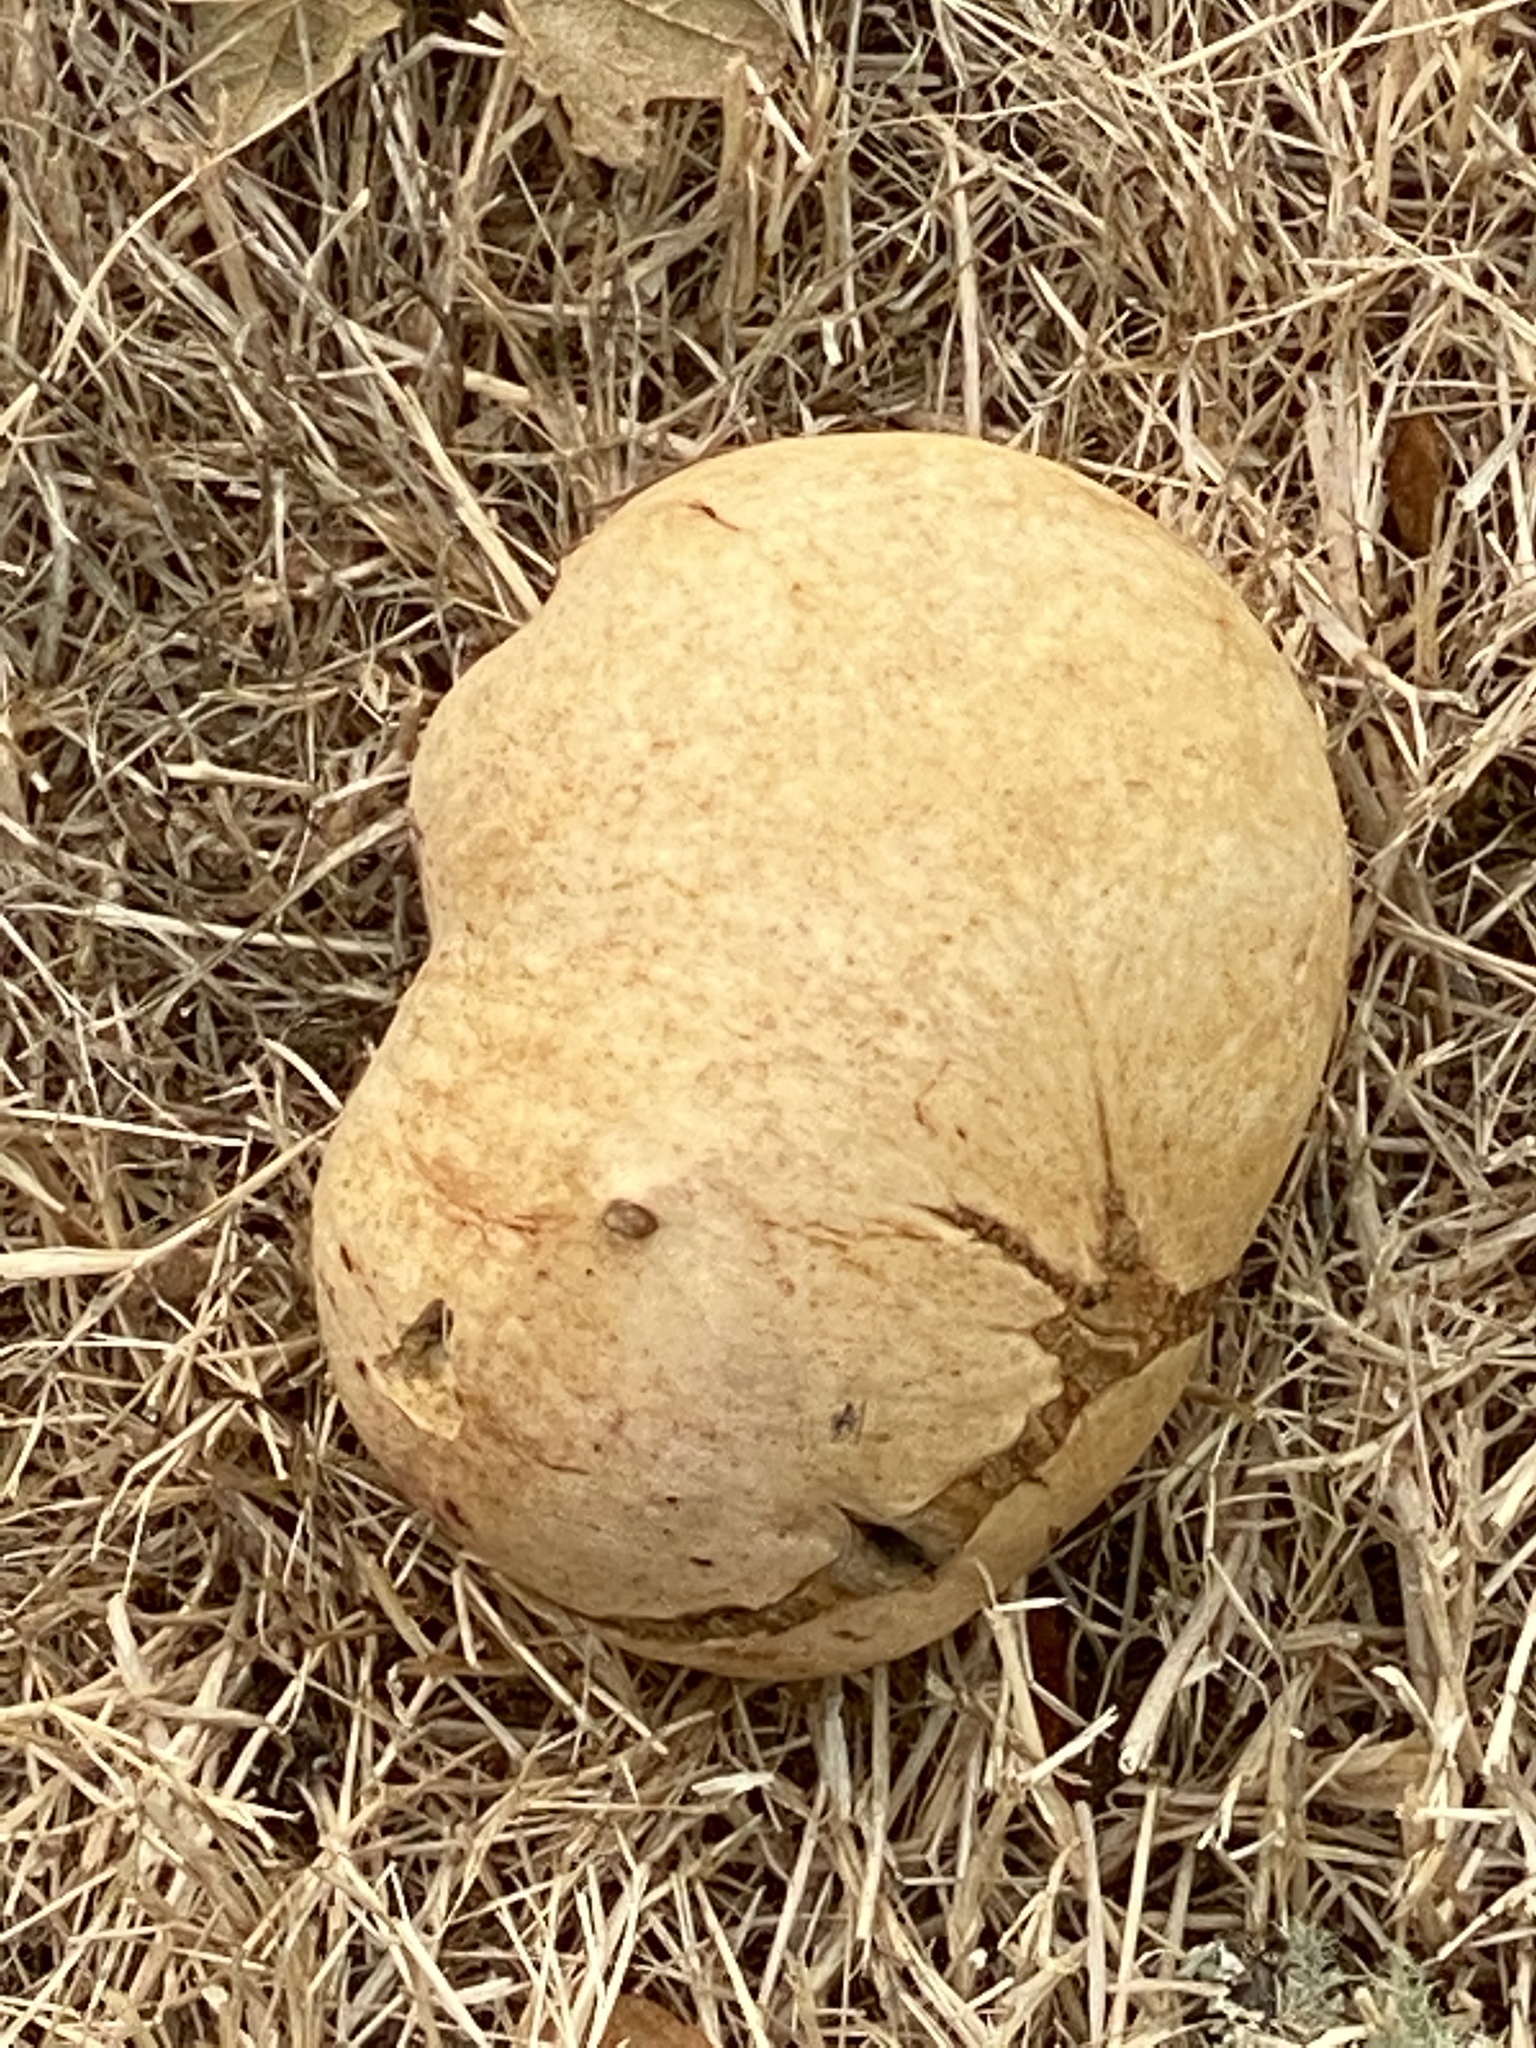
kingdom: Animalia
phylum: Arthropoda
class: Insecta
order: Hymenoptera
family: Cynipidae
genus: Andricus
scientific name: Andricus quercuscalifornicus
